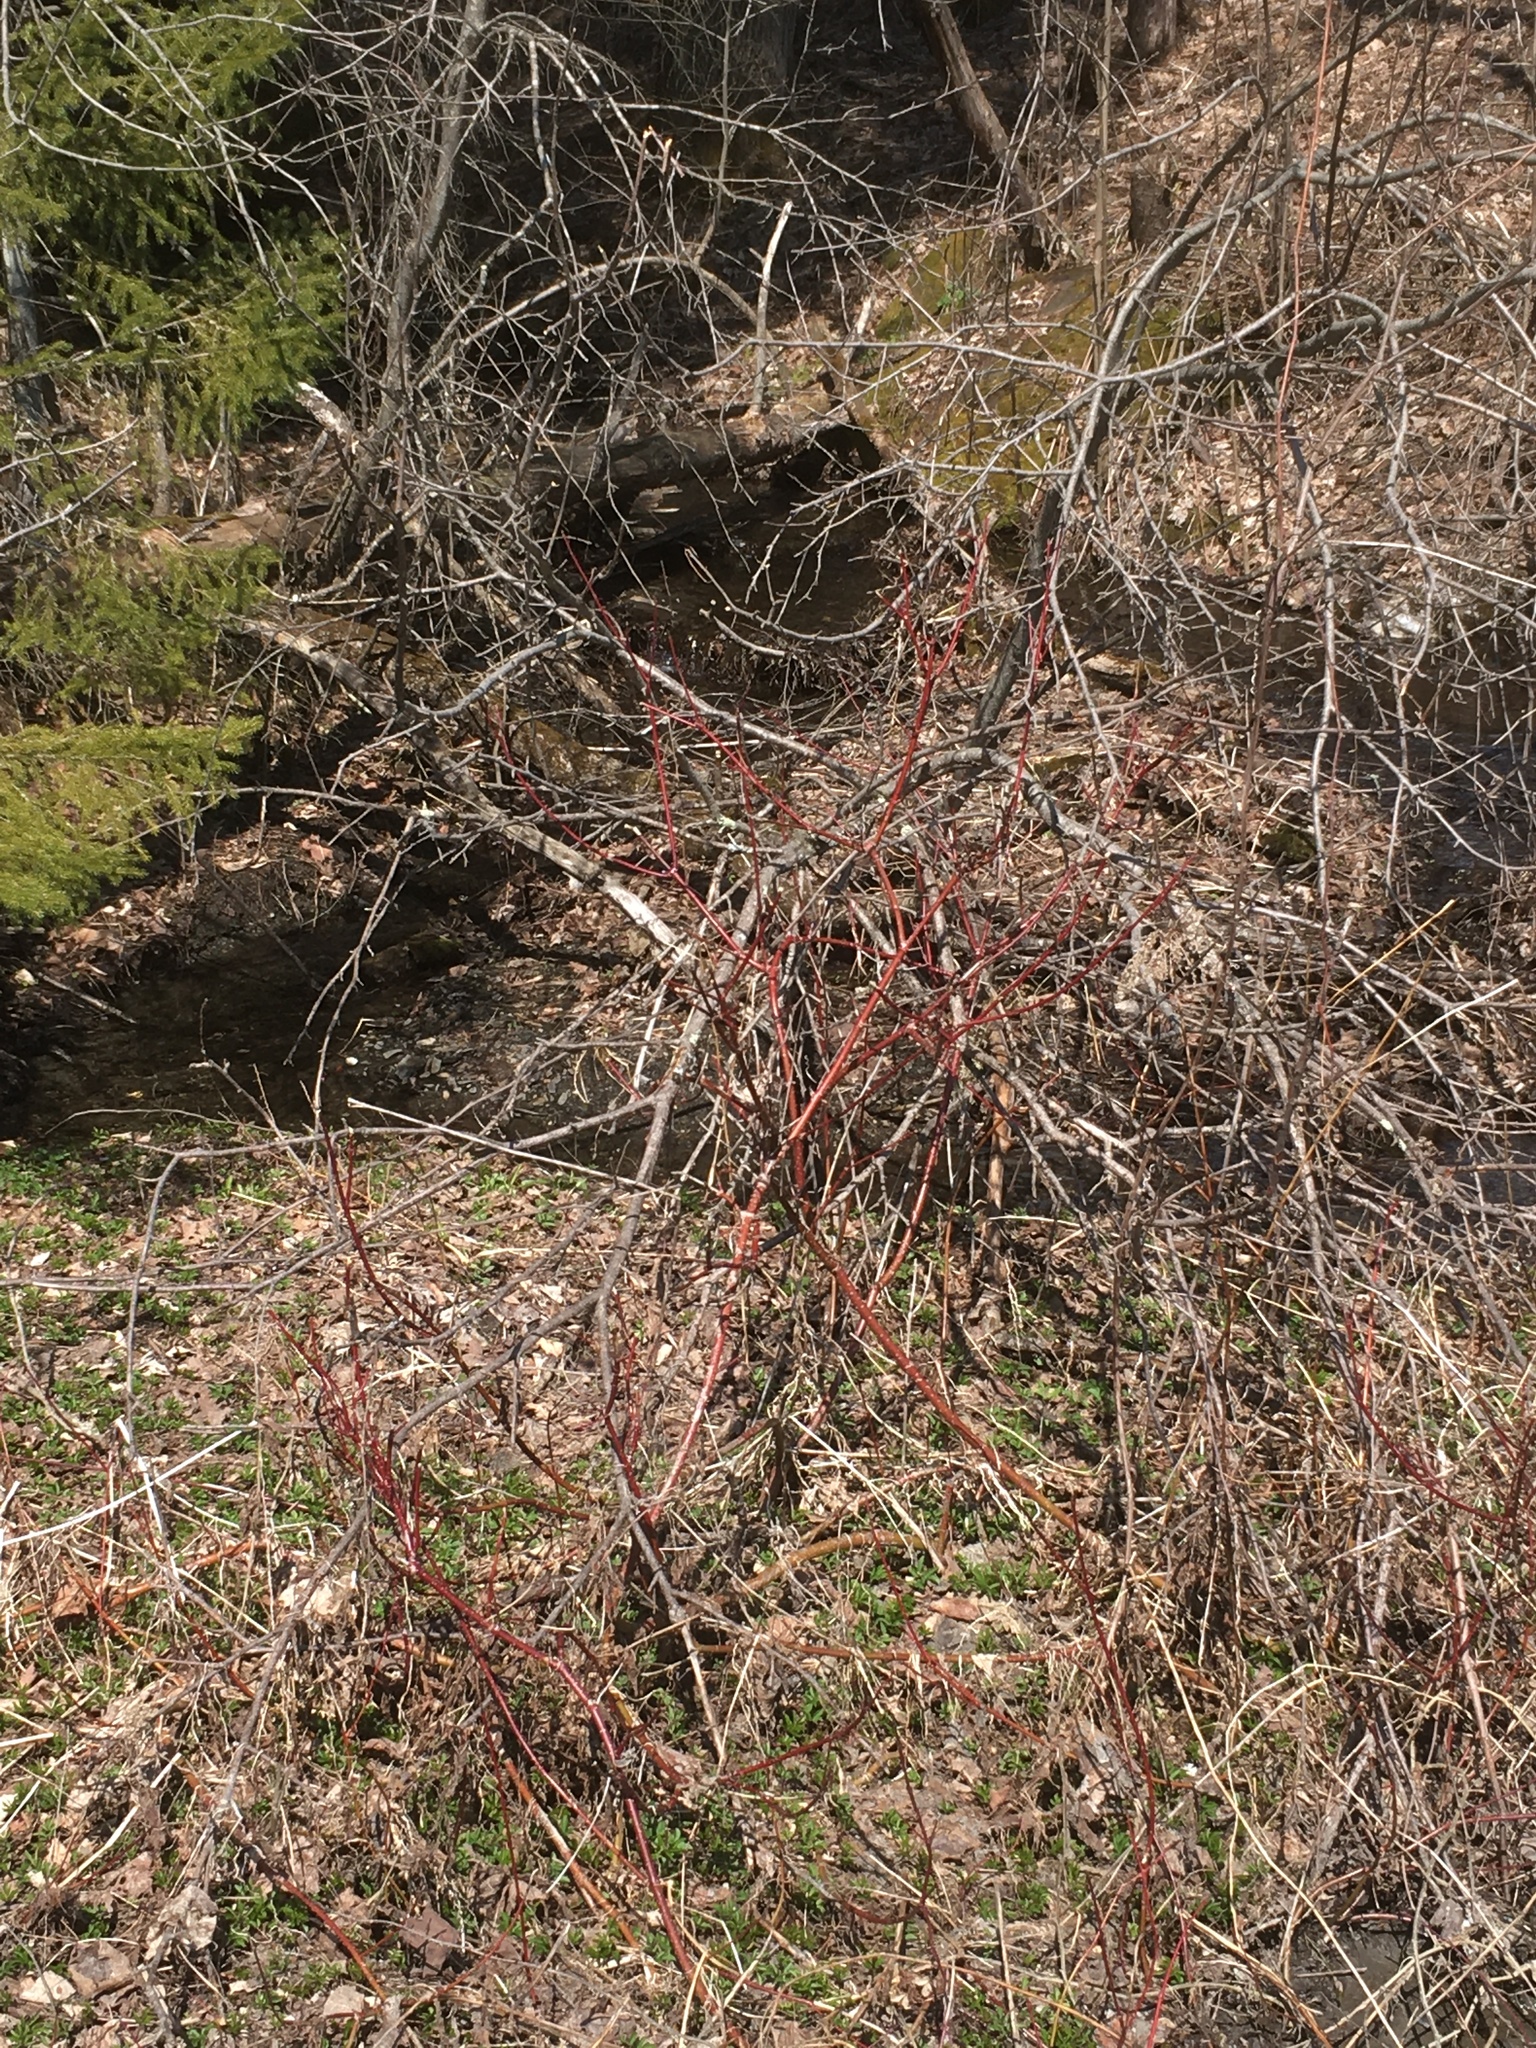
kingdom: Plantae
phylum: Tracheophyta
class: Magnoliopsida
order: Cornales
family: Cornaceae
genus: Cornus
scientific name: Cornus sericea
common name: Red-osier dogwood
